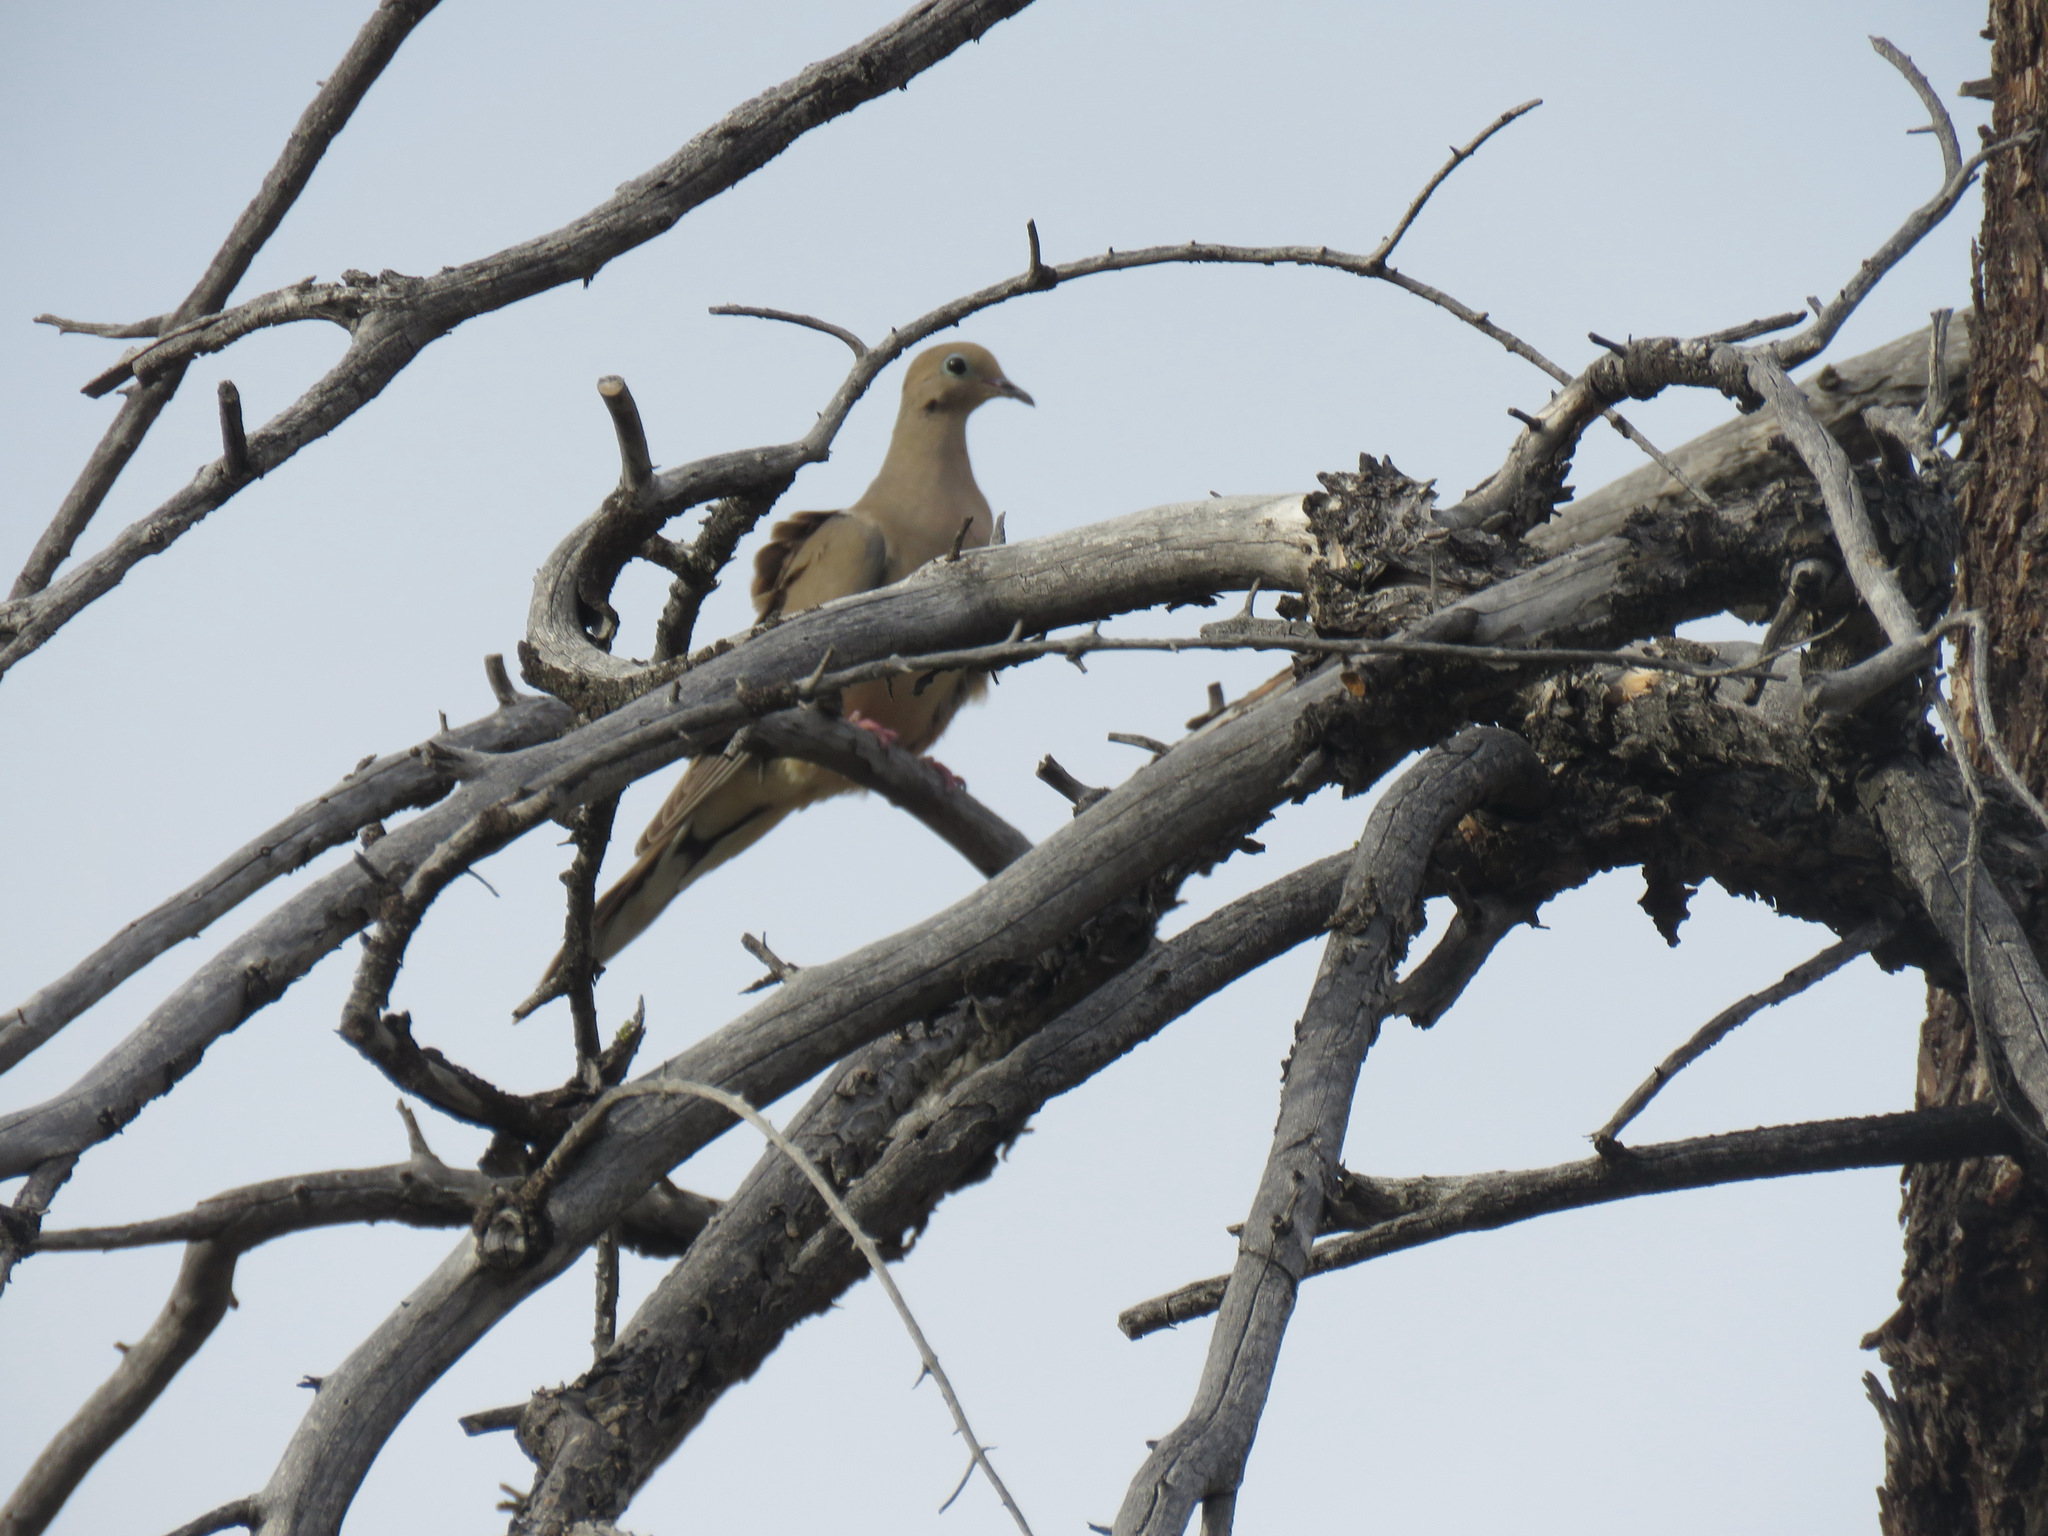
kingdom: Animalia
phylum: Chordata
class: Aves
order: Columbiformes
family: Columbidae
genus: Zenaida
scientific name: Zenaida macroura
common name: Mourning dove
